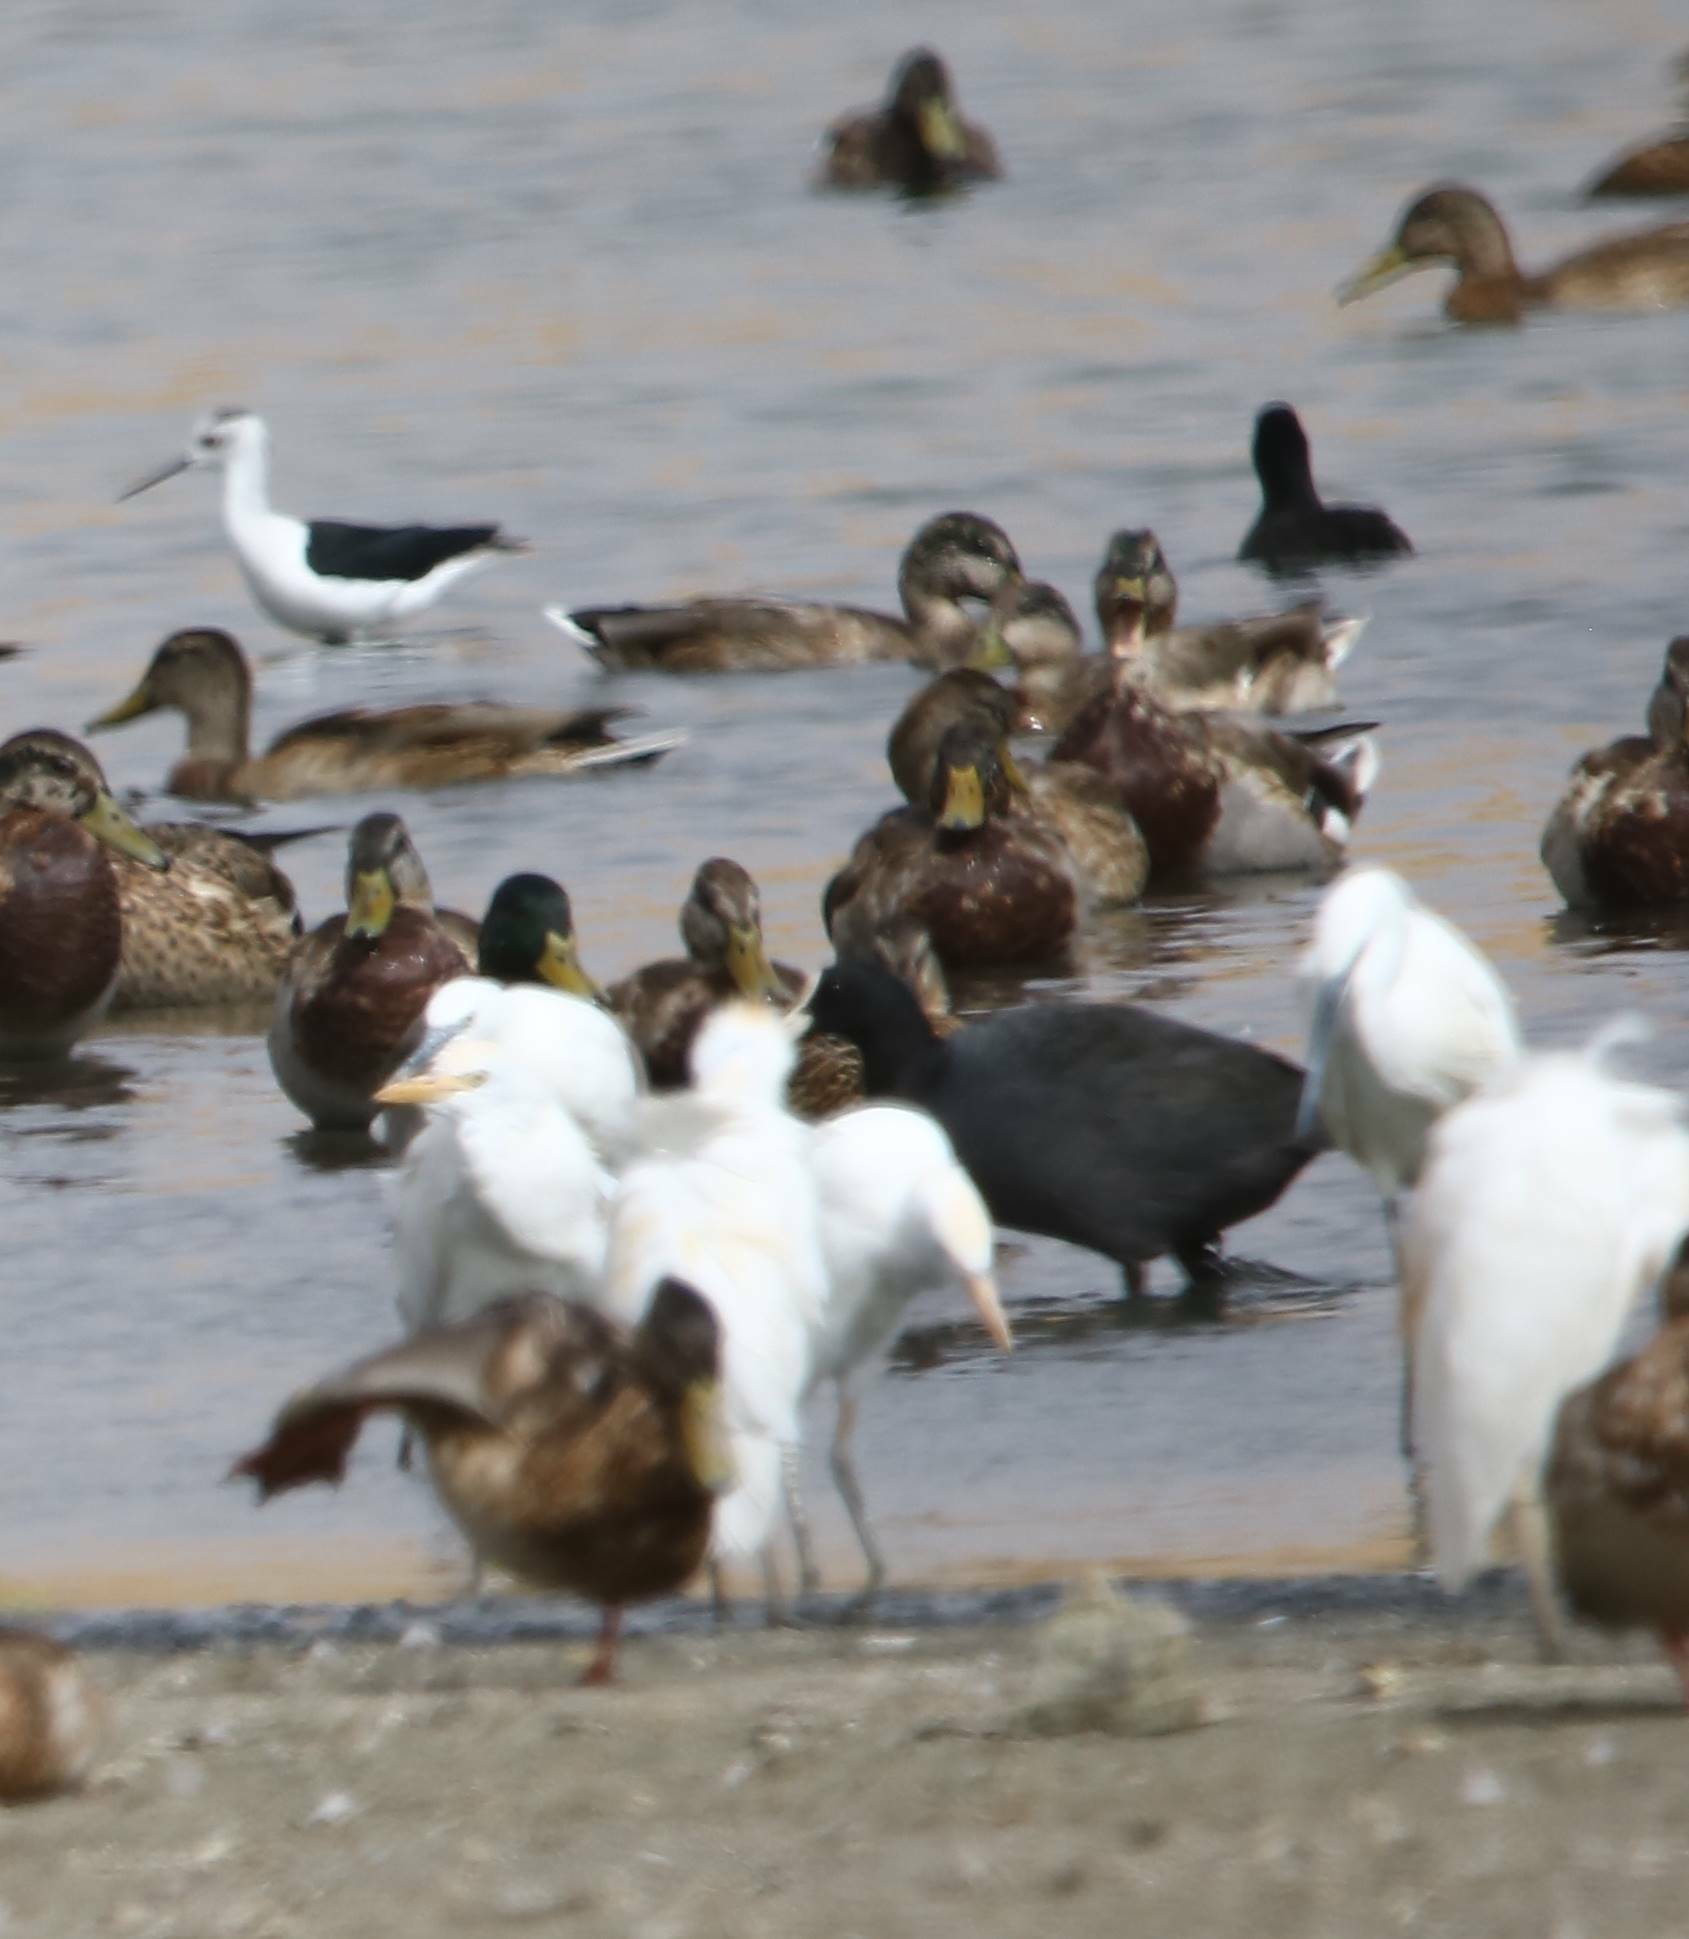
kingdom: Animalia
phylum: Chordata
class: Aves
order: Anseriformes
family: Anatidae
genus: Anas
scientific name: Anas platyrhynchos
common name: Mallard
